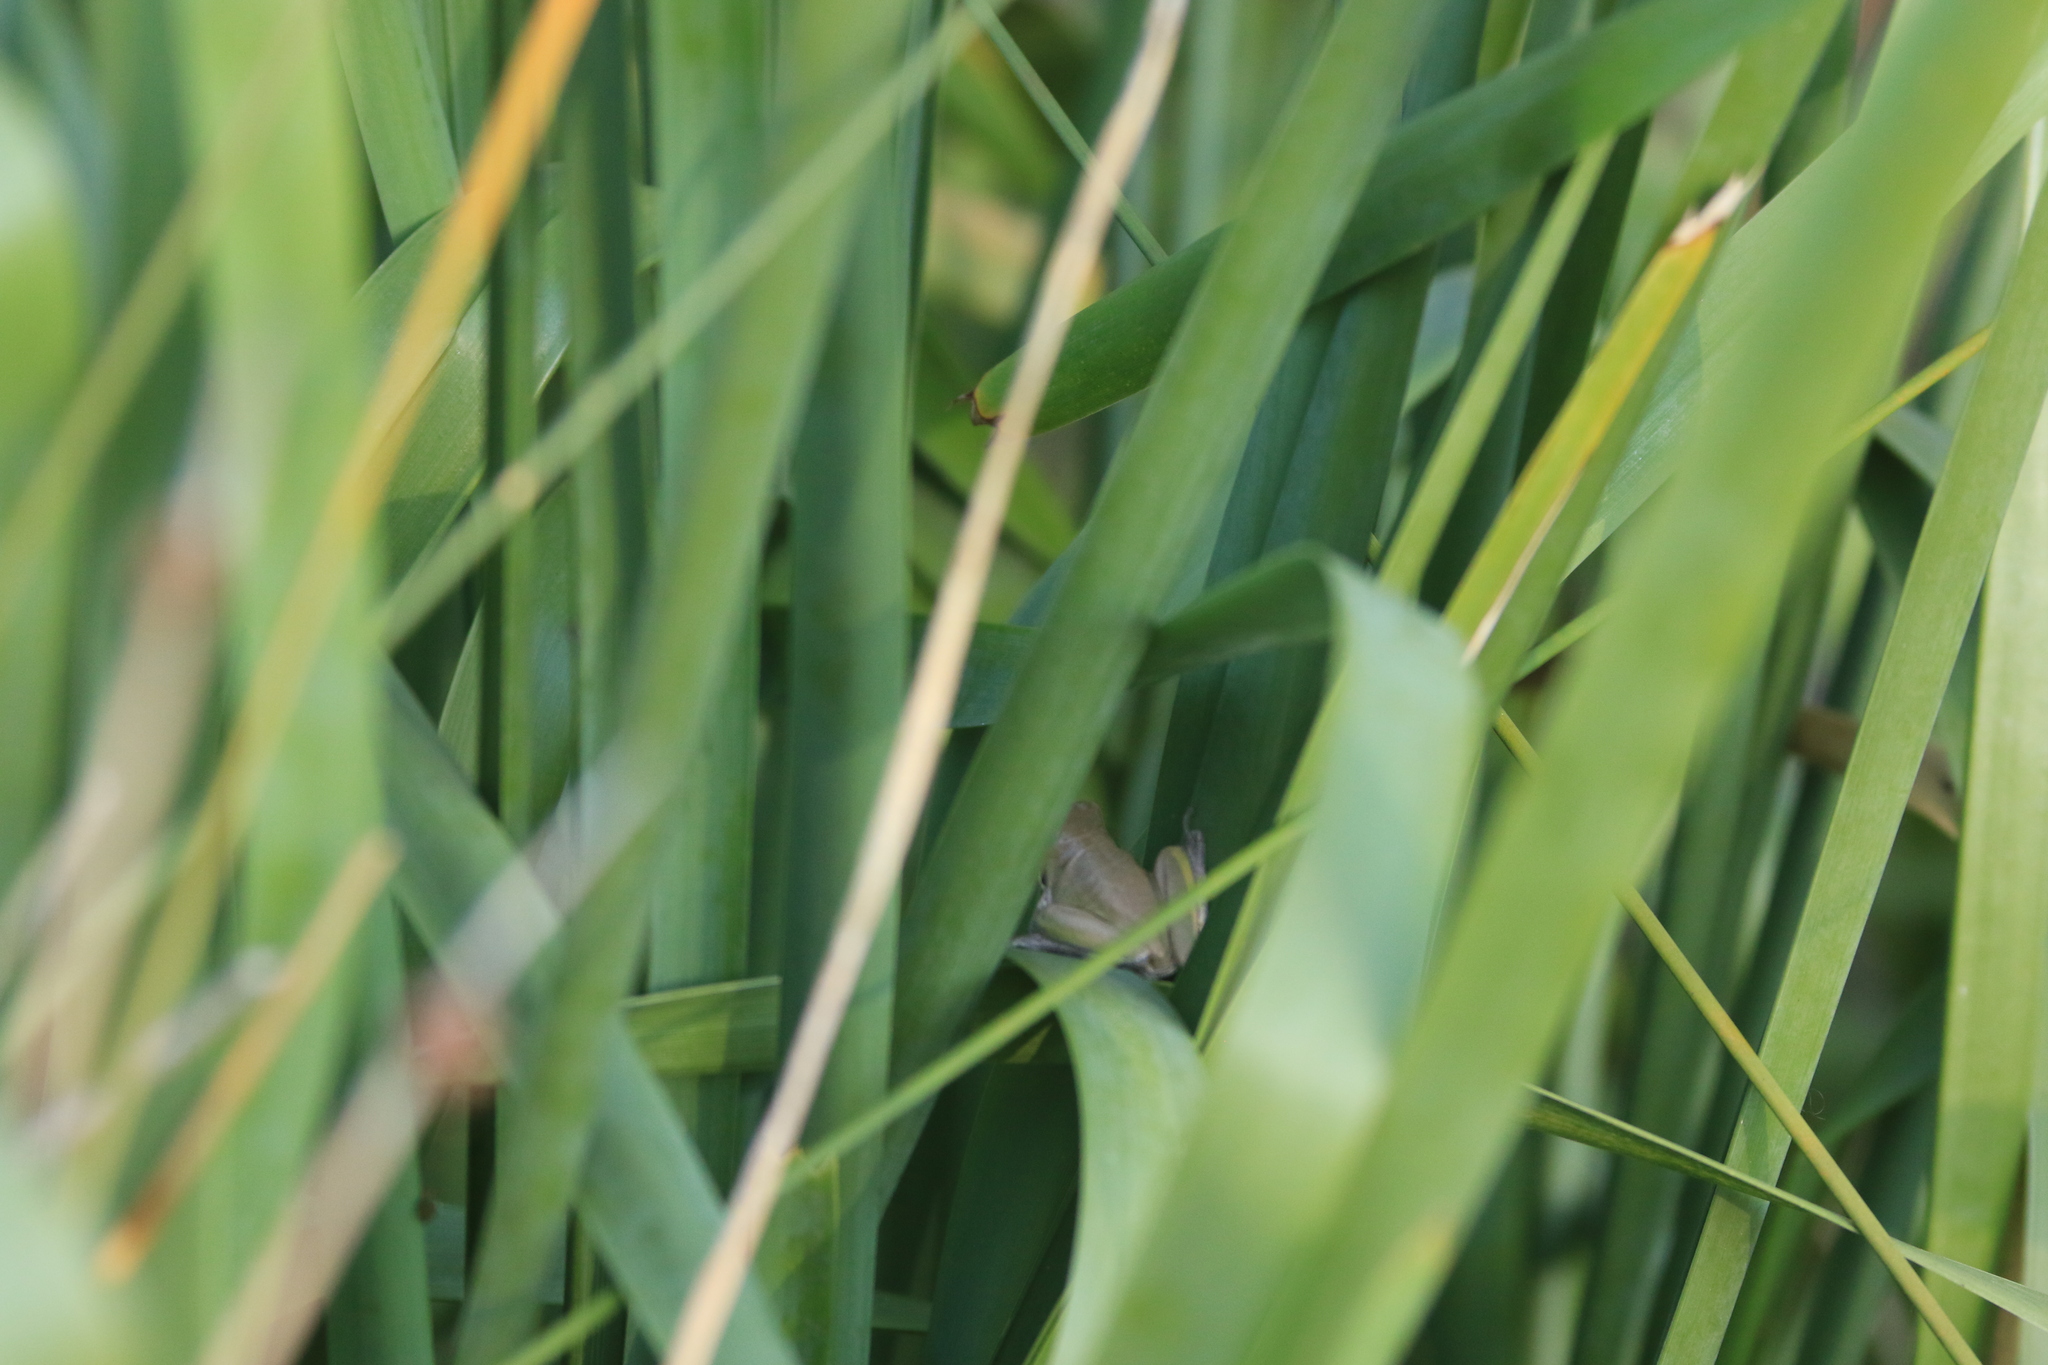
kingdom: Animalia
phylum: Chordata
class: Amphibia
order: Anura
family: Pelodryadidae
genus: Litoria
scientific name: Litoria fallax
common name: Eastern dwarf treefrog
